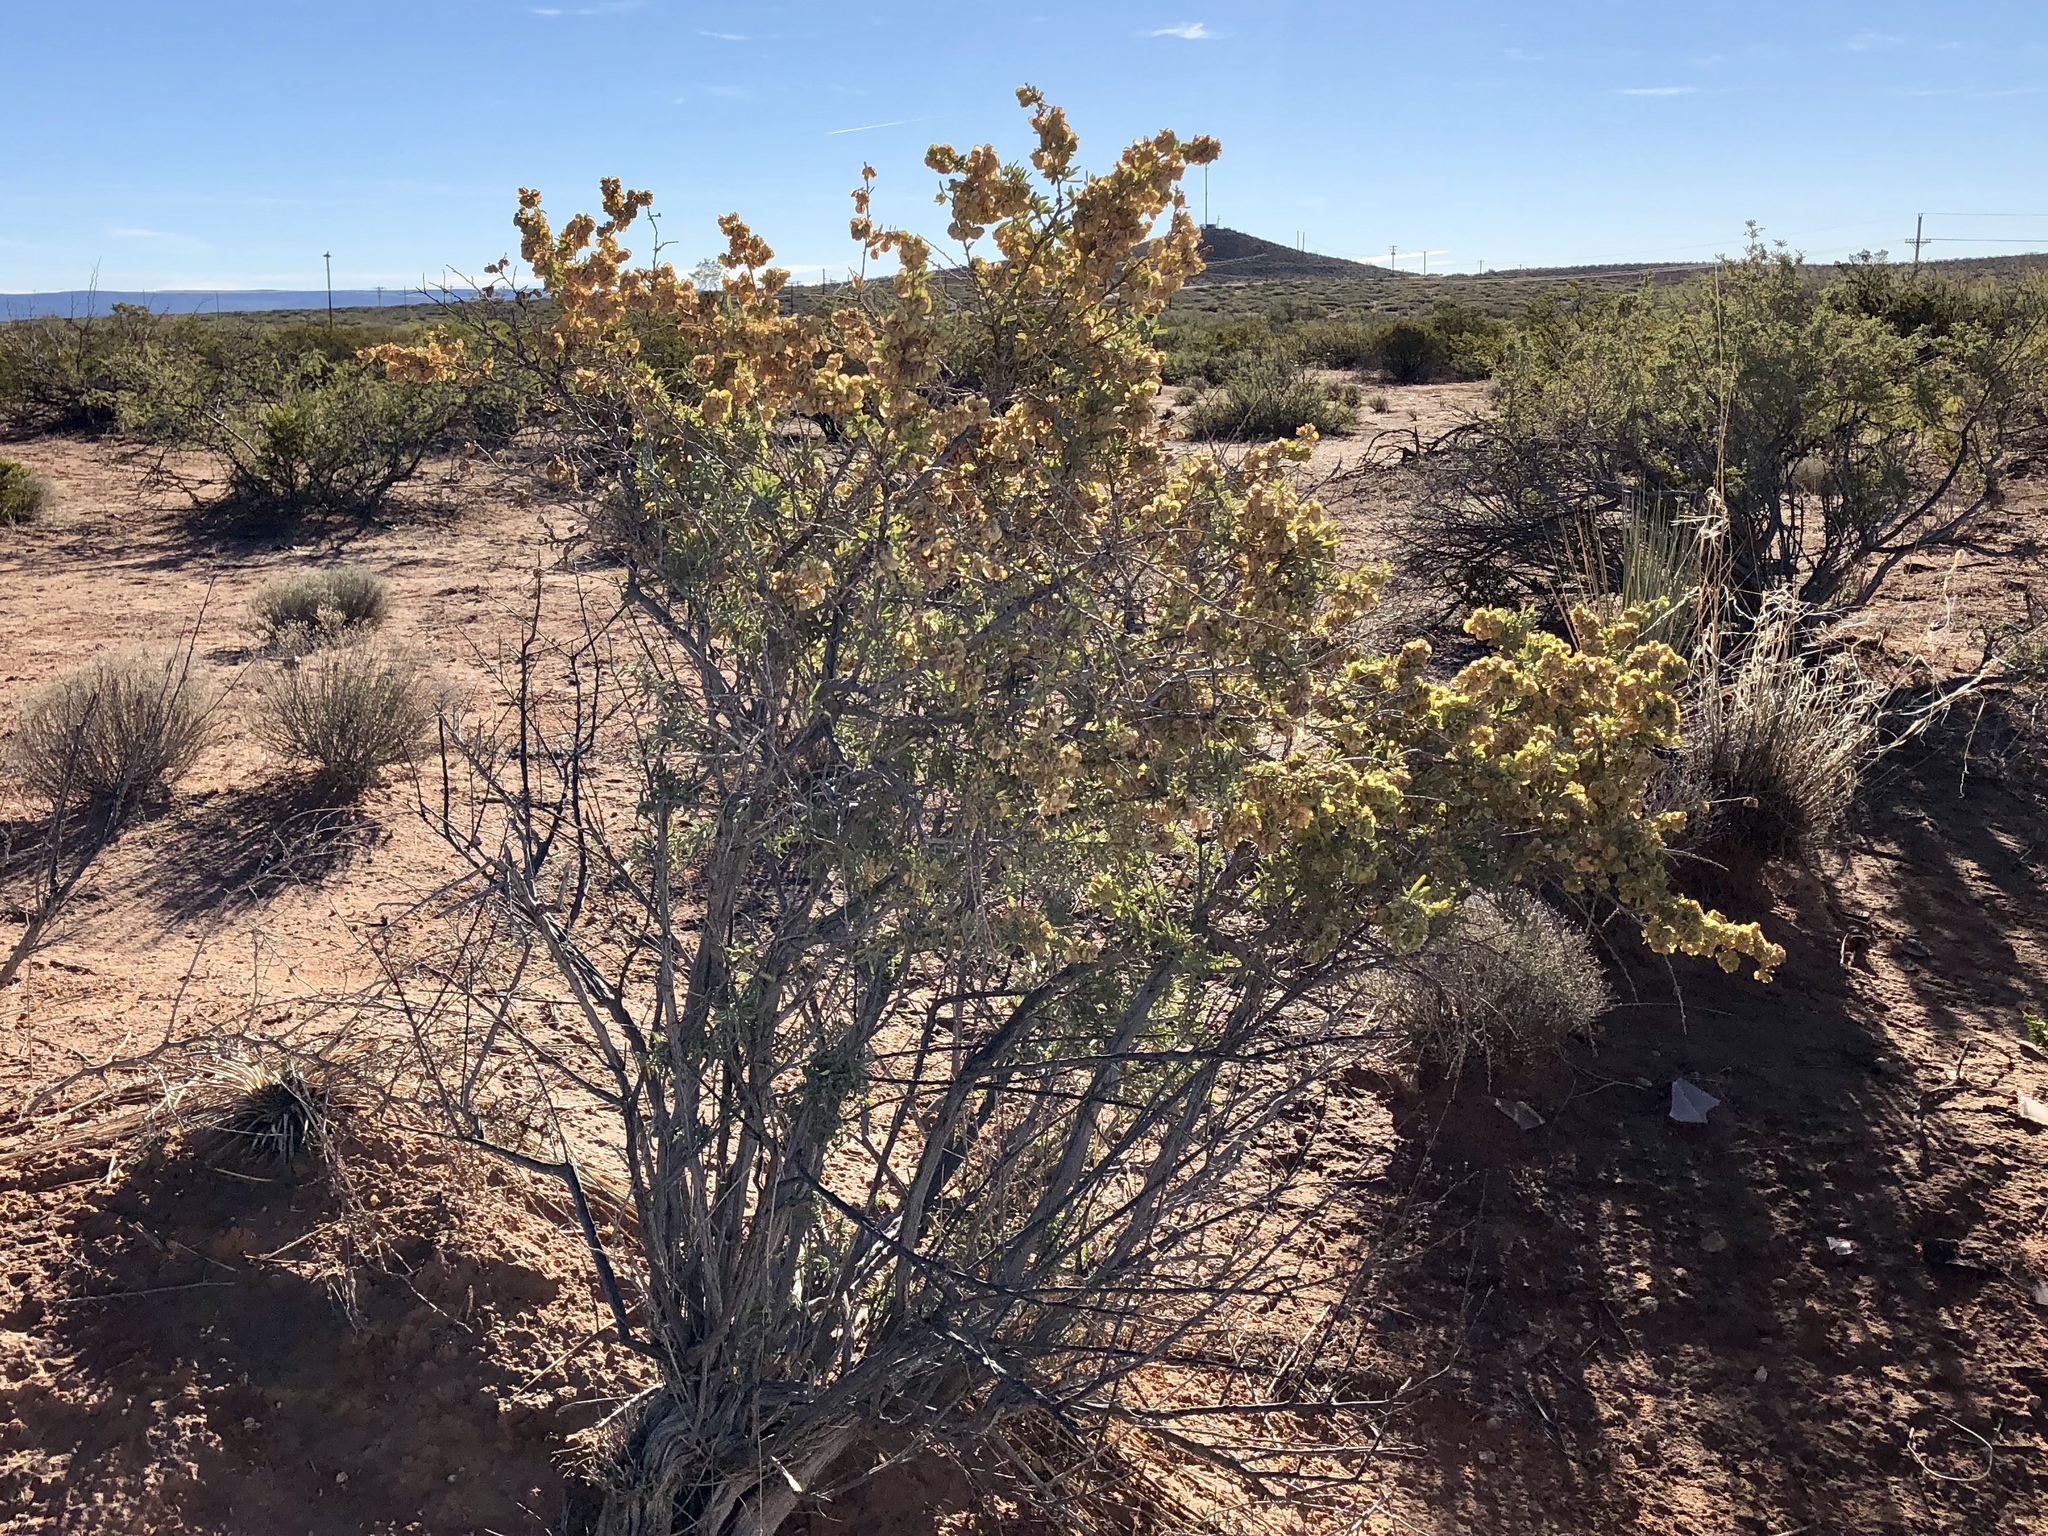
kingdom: Plantae
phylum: Tracheophyta
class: Magnoliopsida
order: Caryophyllales
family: Amaranthaceae
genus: Atriplex
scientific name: Atriplex canescens
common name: Four-wing saltbush
